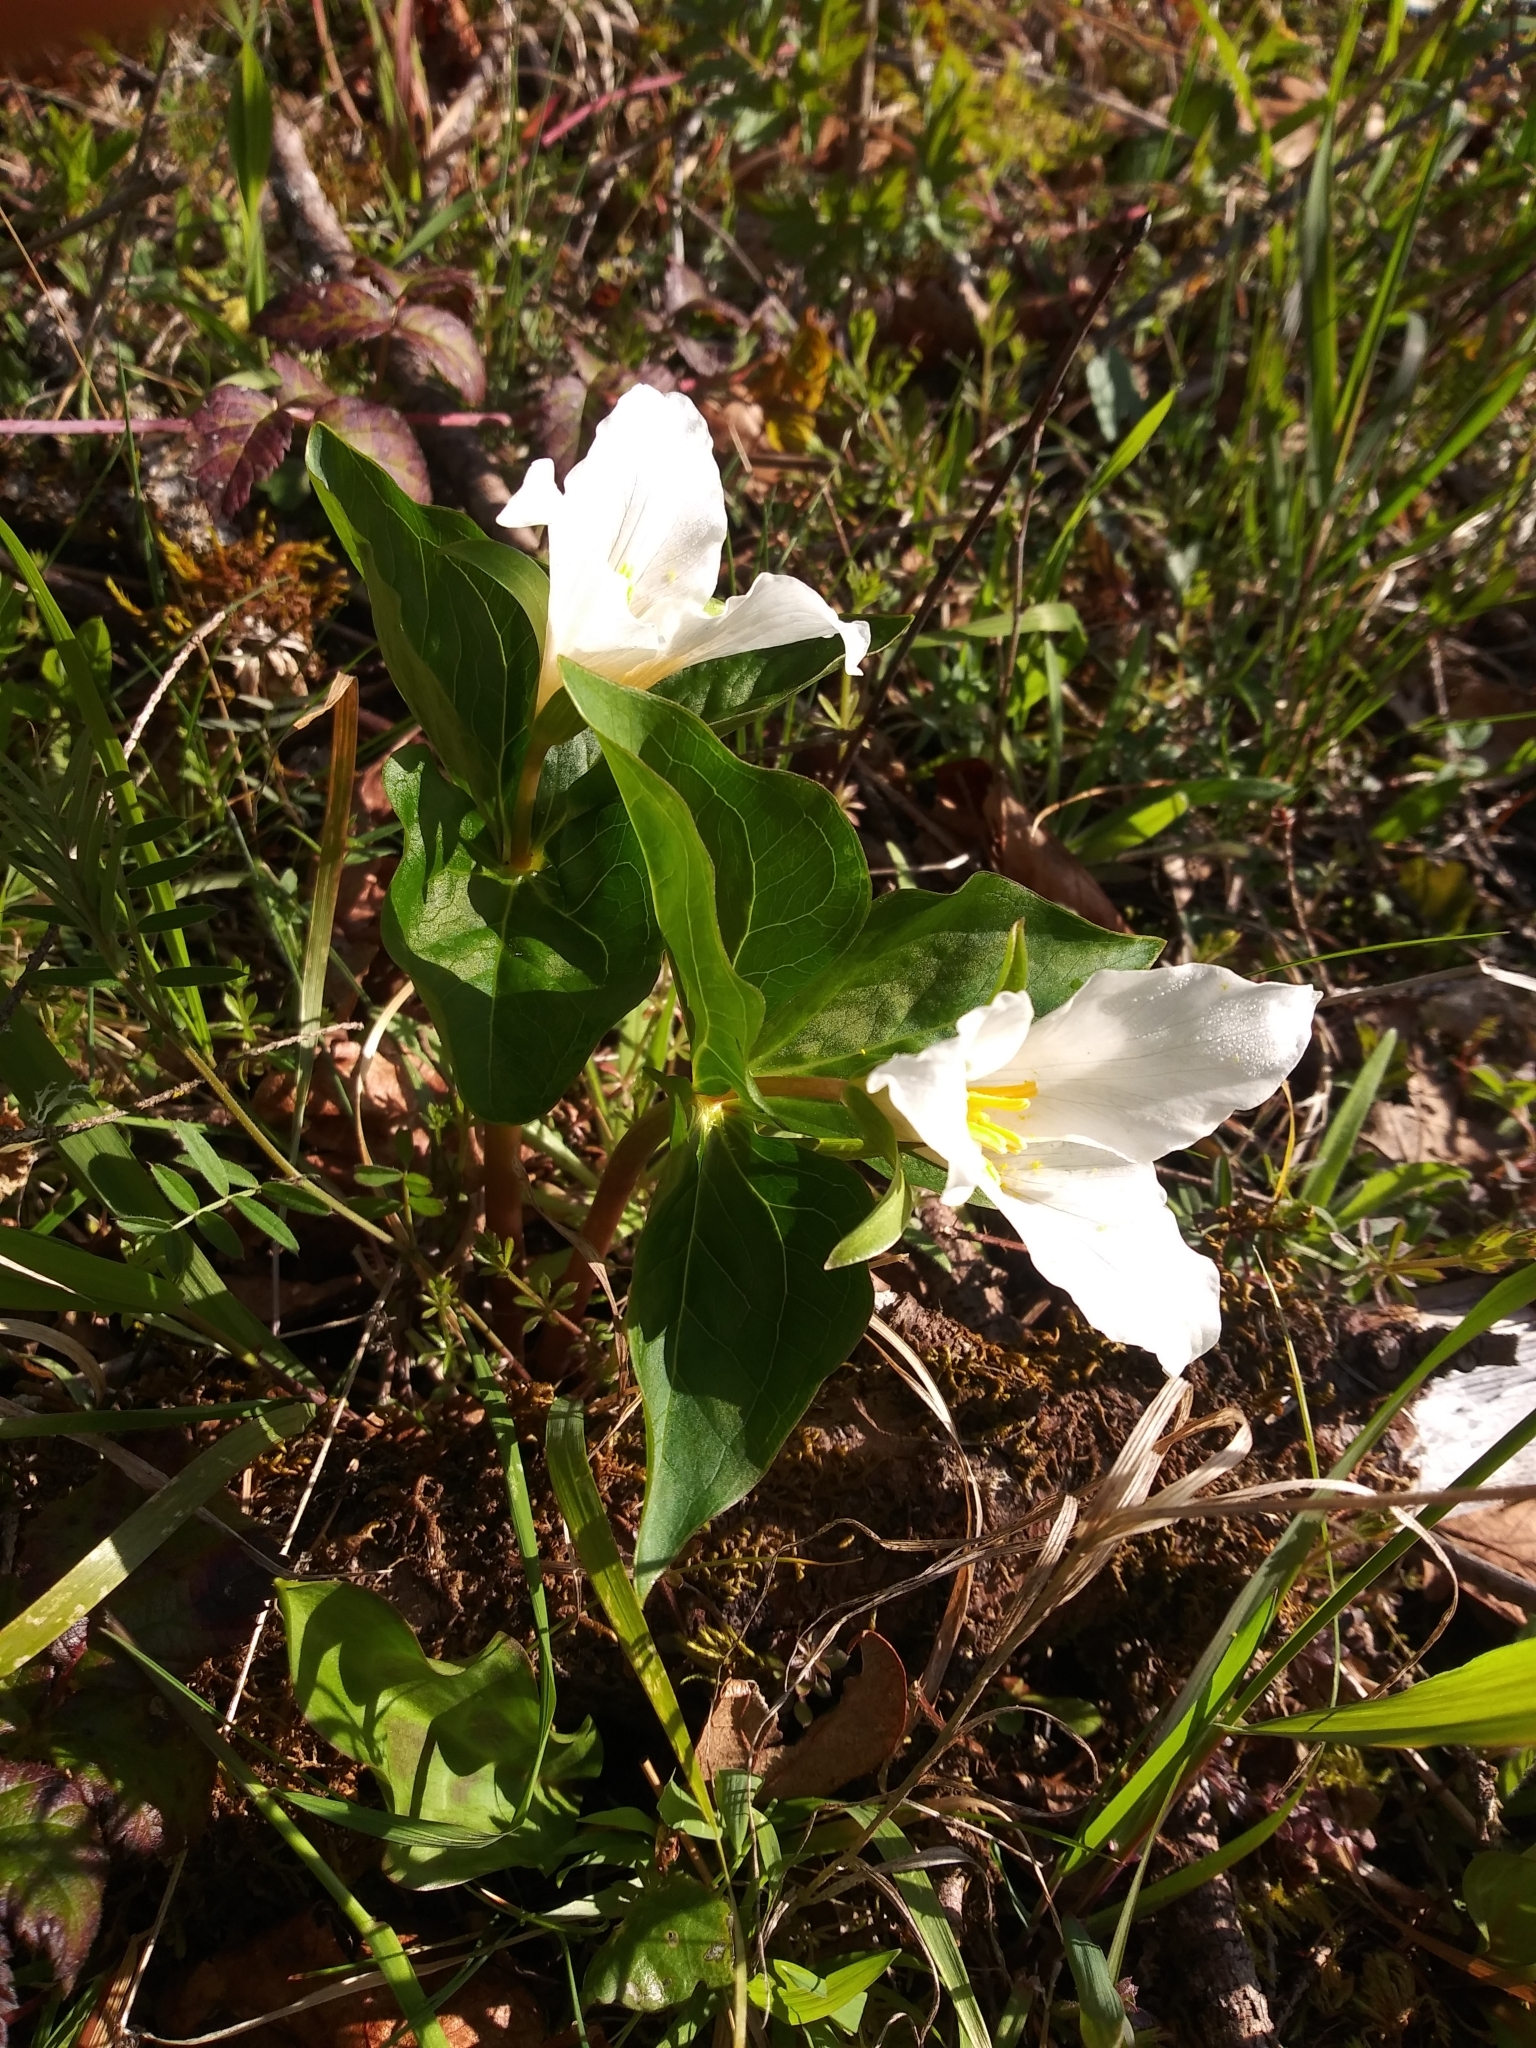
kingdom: Plantae
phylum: Tracheophyta
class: Liliopsida
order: Liliales
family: Melanthiaceae
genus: Trillium
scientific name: Trillium ovatum
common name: Pacific trillium
